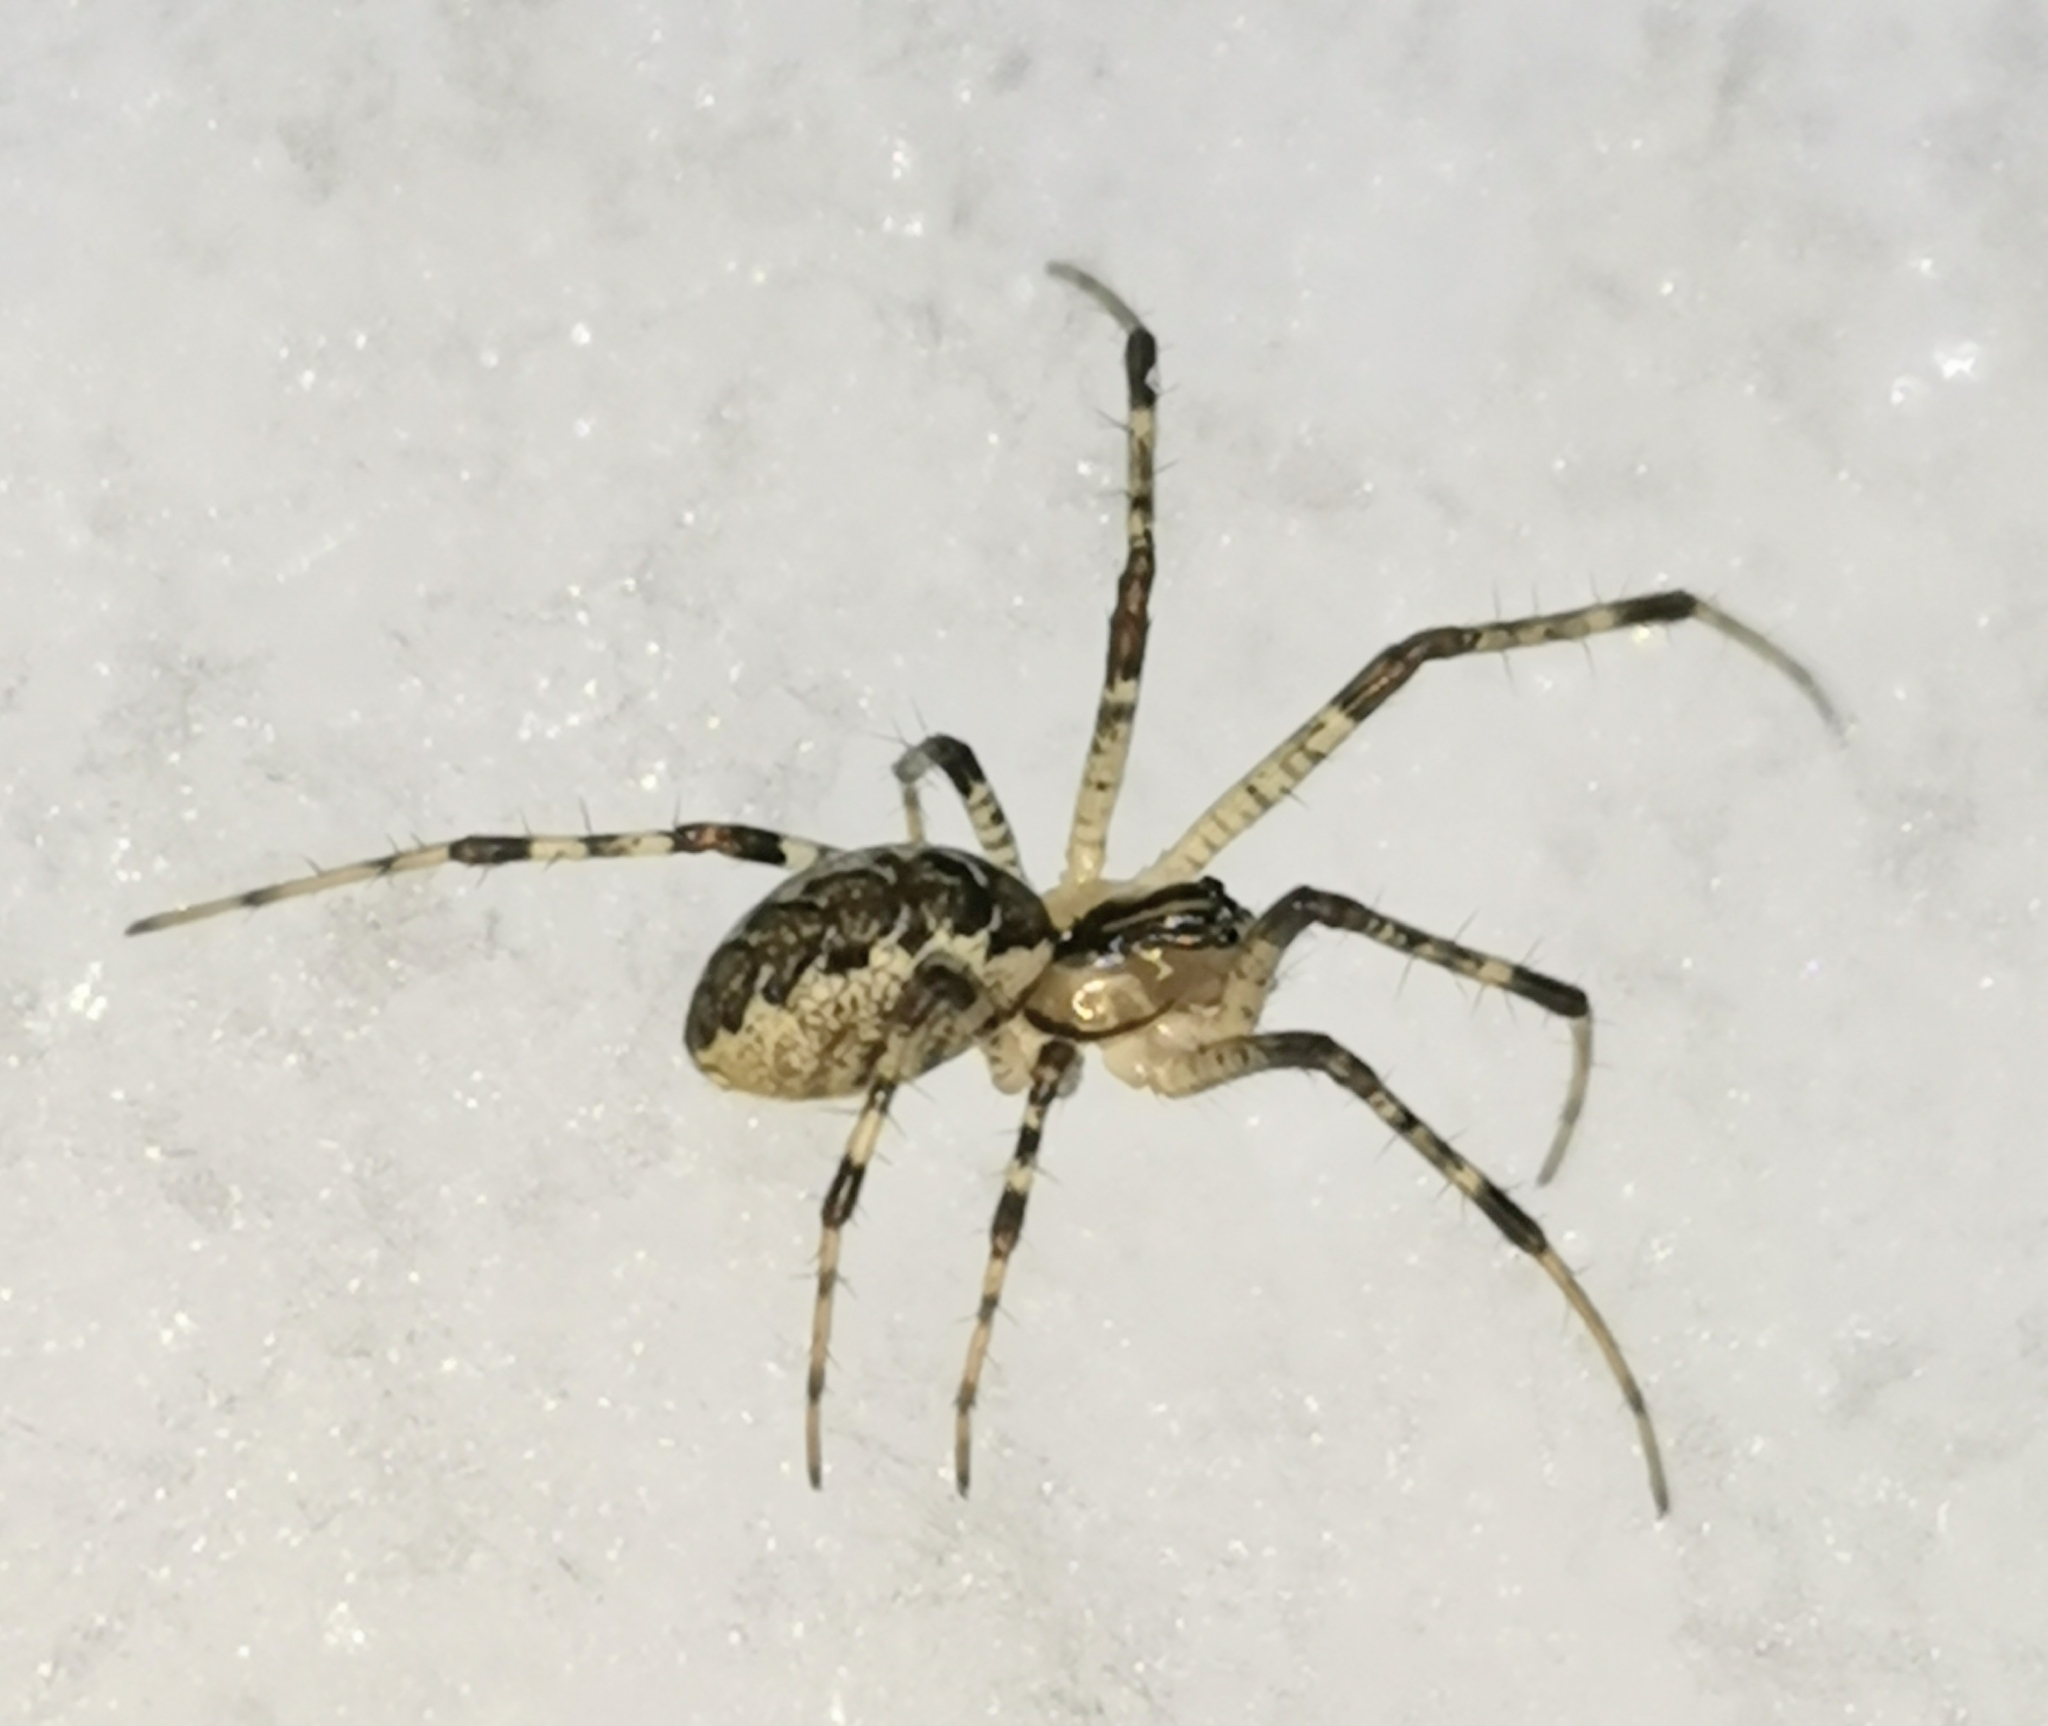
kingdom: Animalia
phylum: Arthropoda
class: Arachnida
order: Araneae
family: Linyphiidae
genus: Pityohyphantes
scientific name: Pityohyphantes phrygianus
